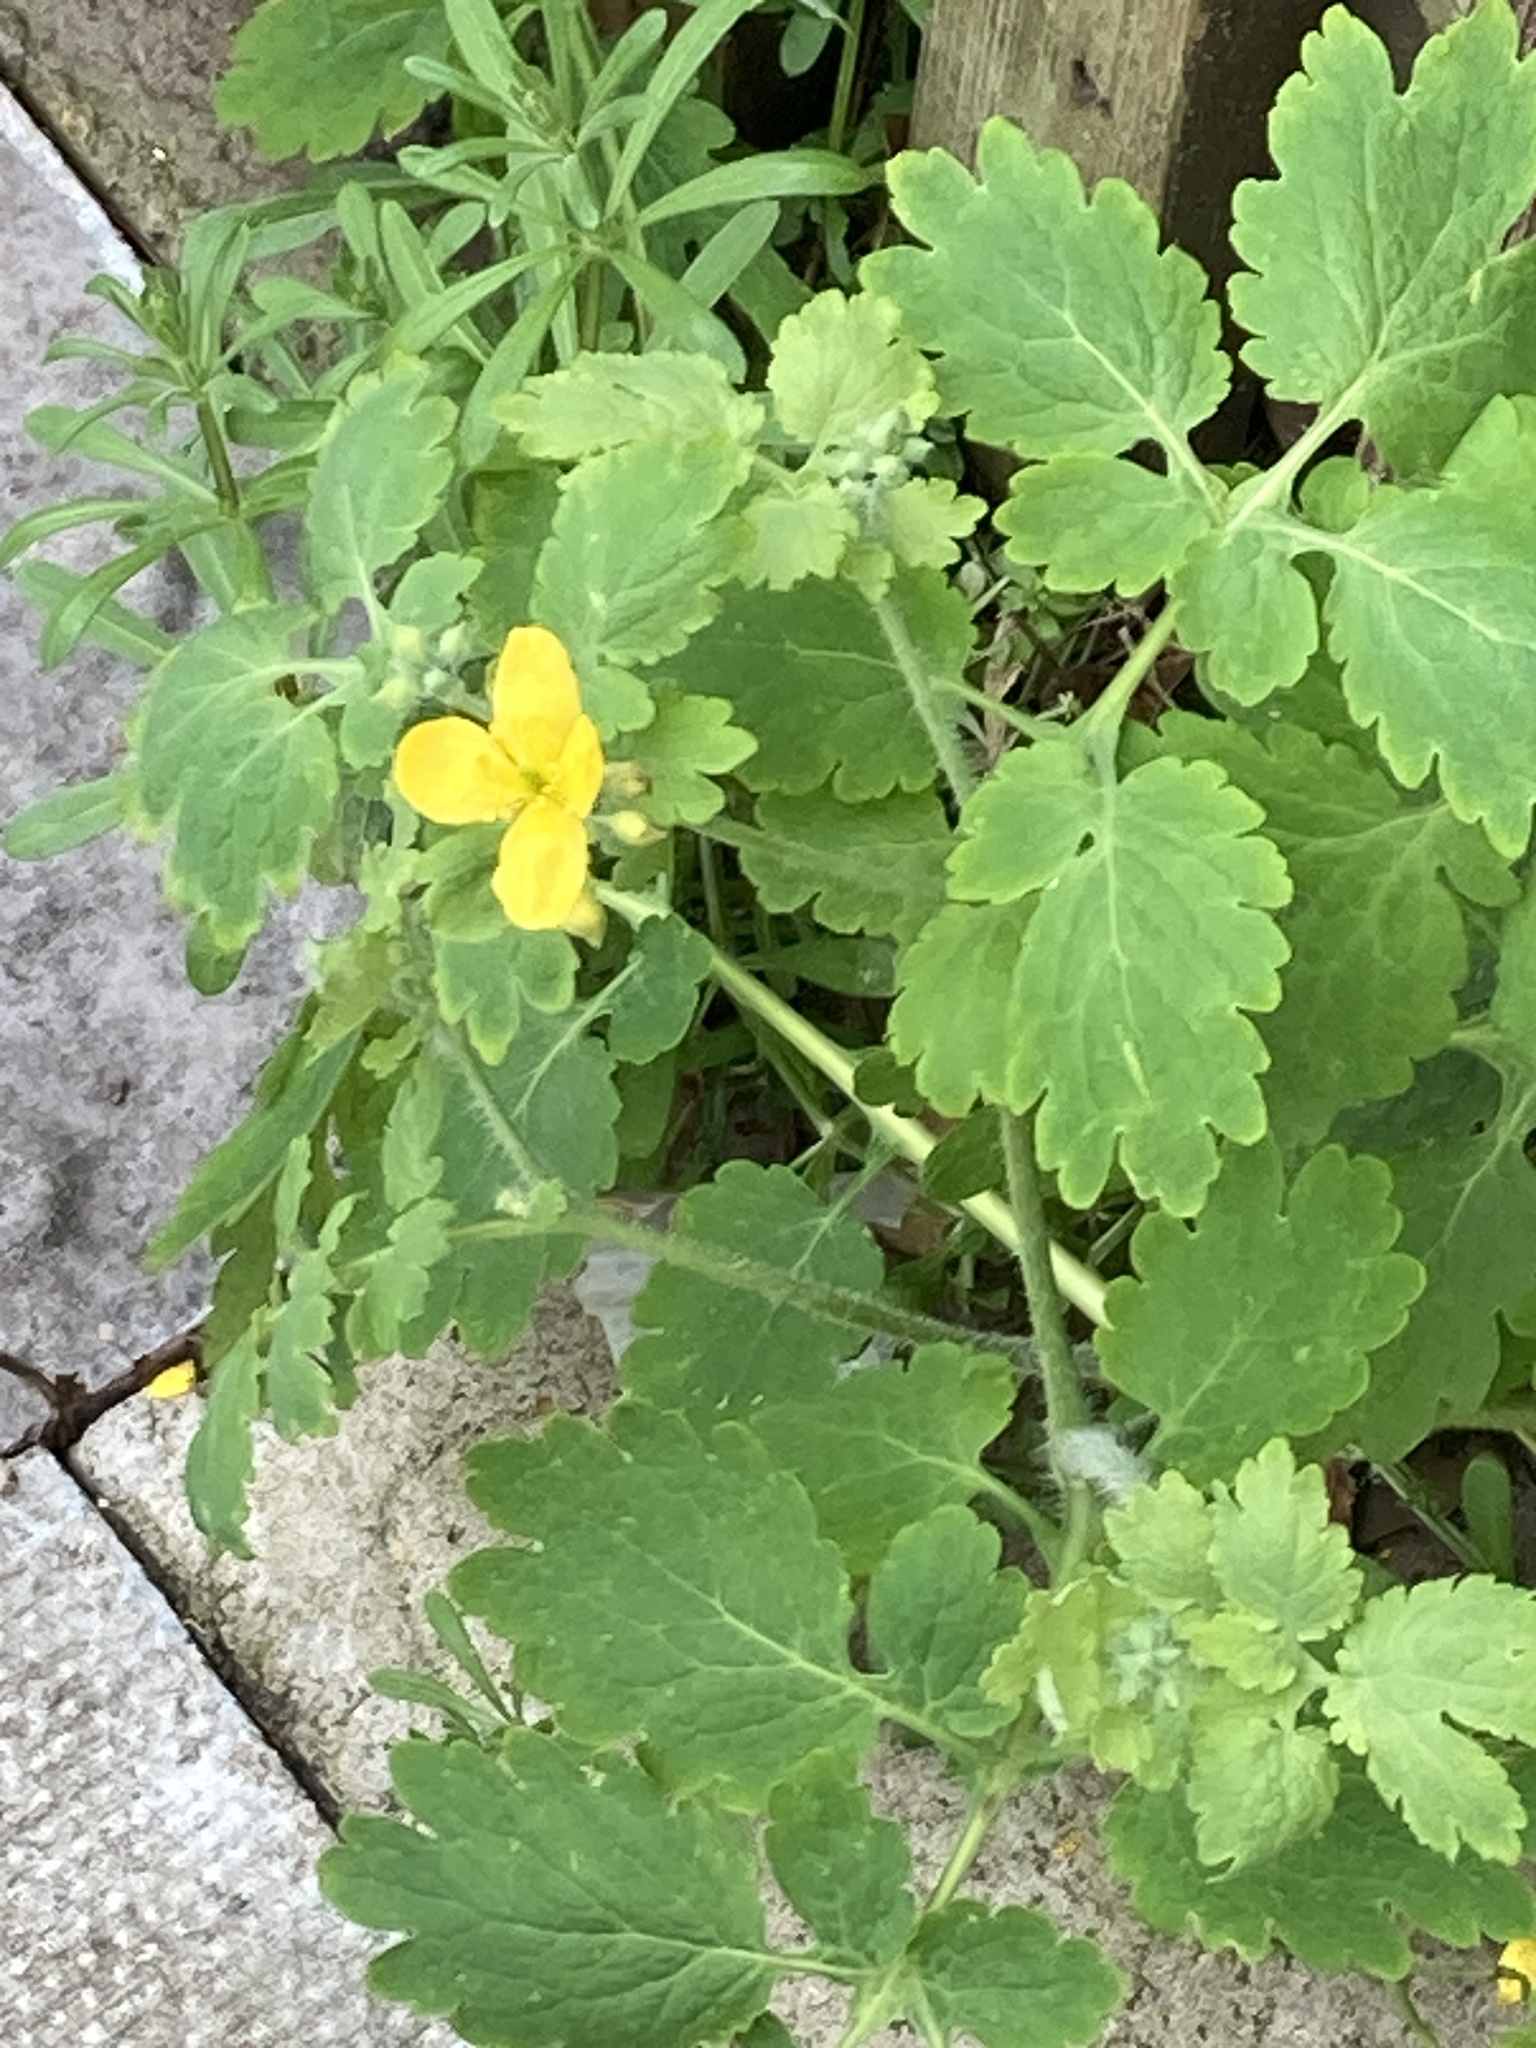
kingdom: Plantae
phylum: Tracheophyta
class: Magnoliopsida
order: Ranunculales
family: Papaveraceae
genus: Chelidonium
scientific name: Chelidonium majus
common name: Greater celandine
